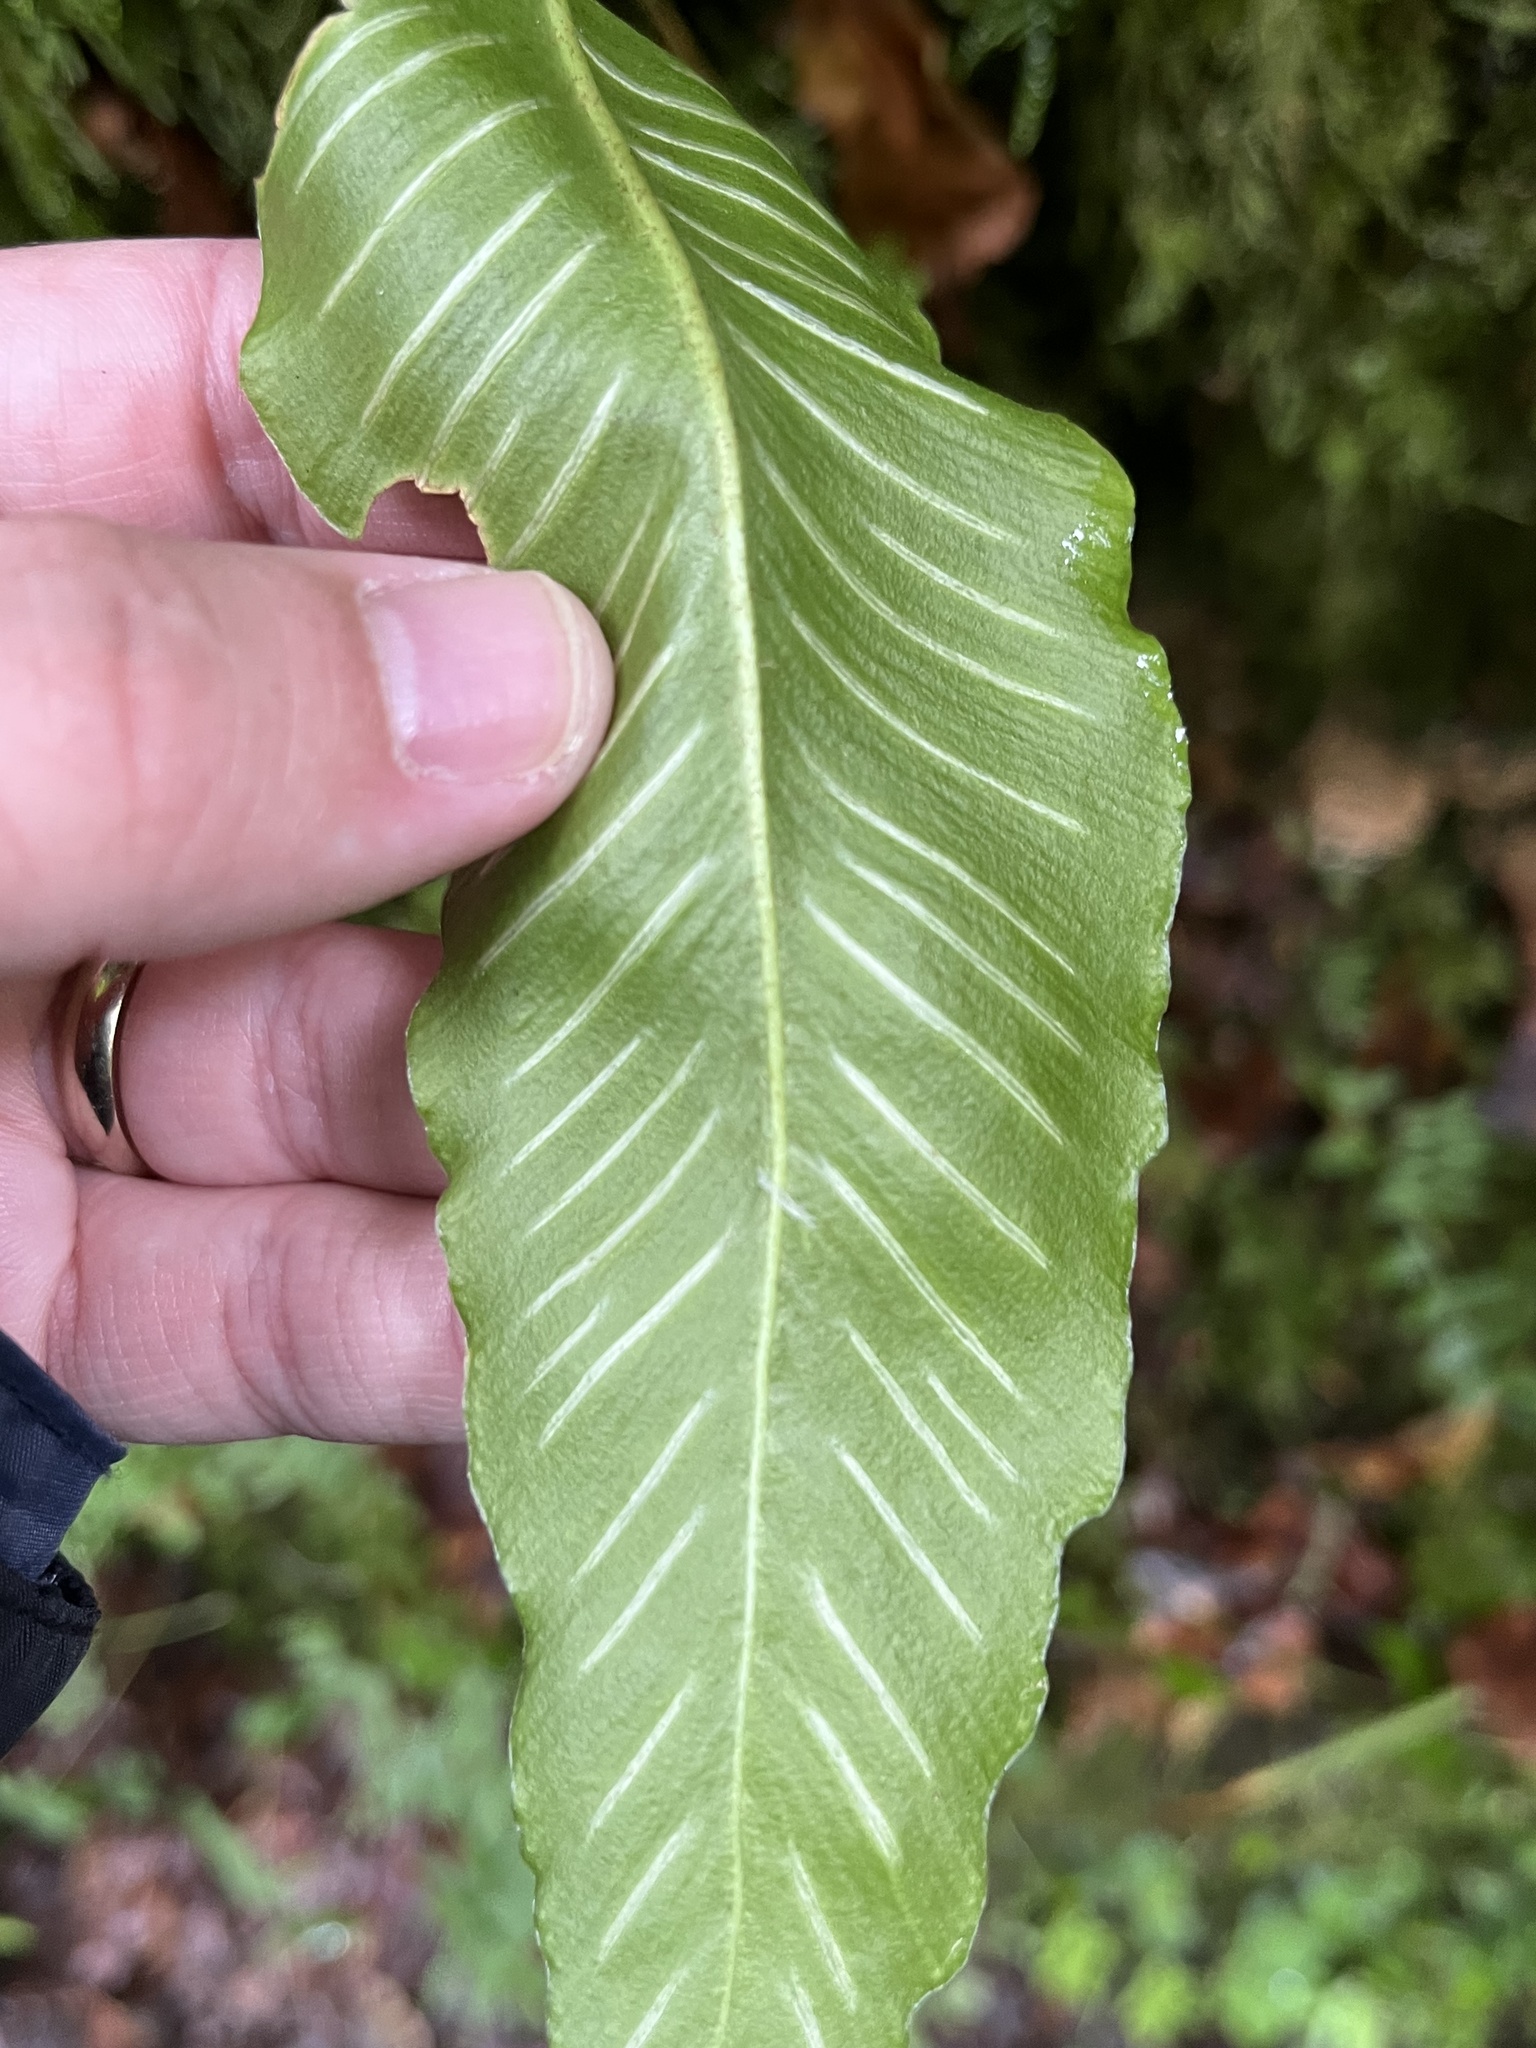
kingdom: Plantae
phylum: Tracheophyta
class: Polypodiopsida
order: Polypodiales
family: Aspleniaceae
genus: Asplenium
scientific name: Asplenium scolopendrium
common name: Hart's-tongue fern
